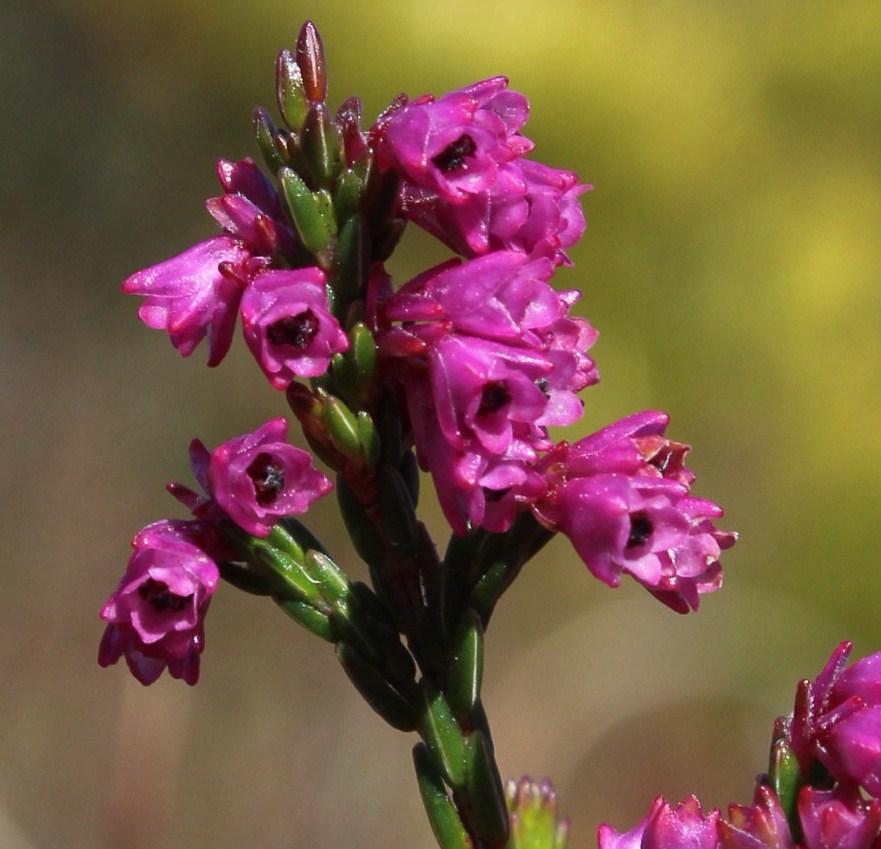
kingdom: Plantae
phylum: Tracheophyta
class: Magnoliopsida
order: Ericales
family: Ericaceae
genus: Erica
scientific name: Erica corifolia
